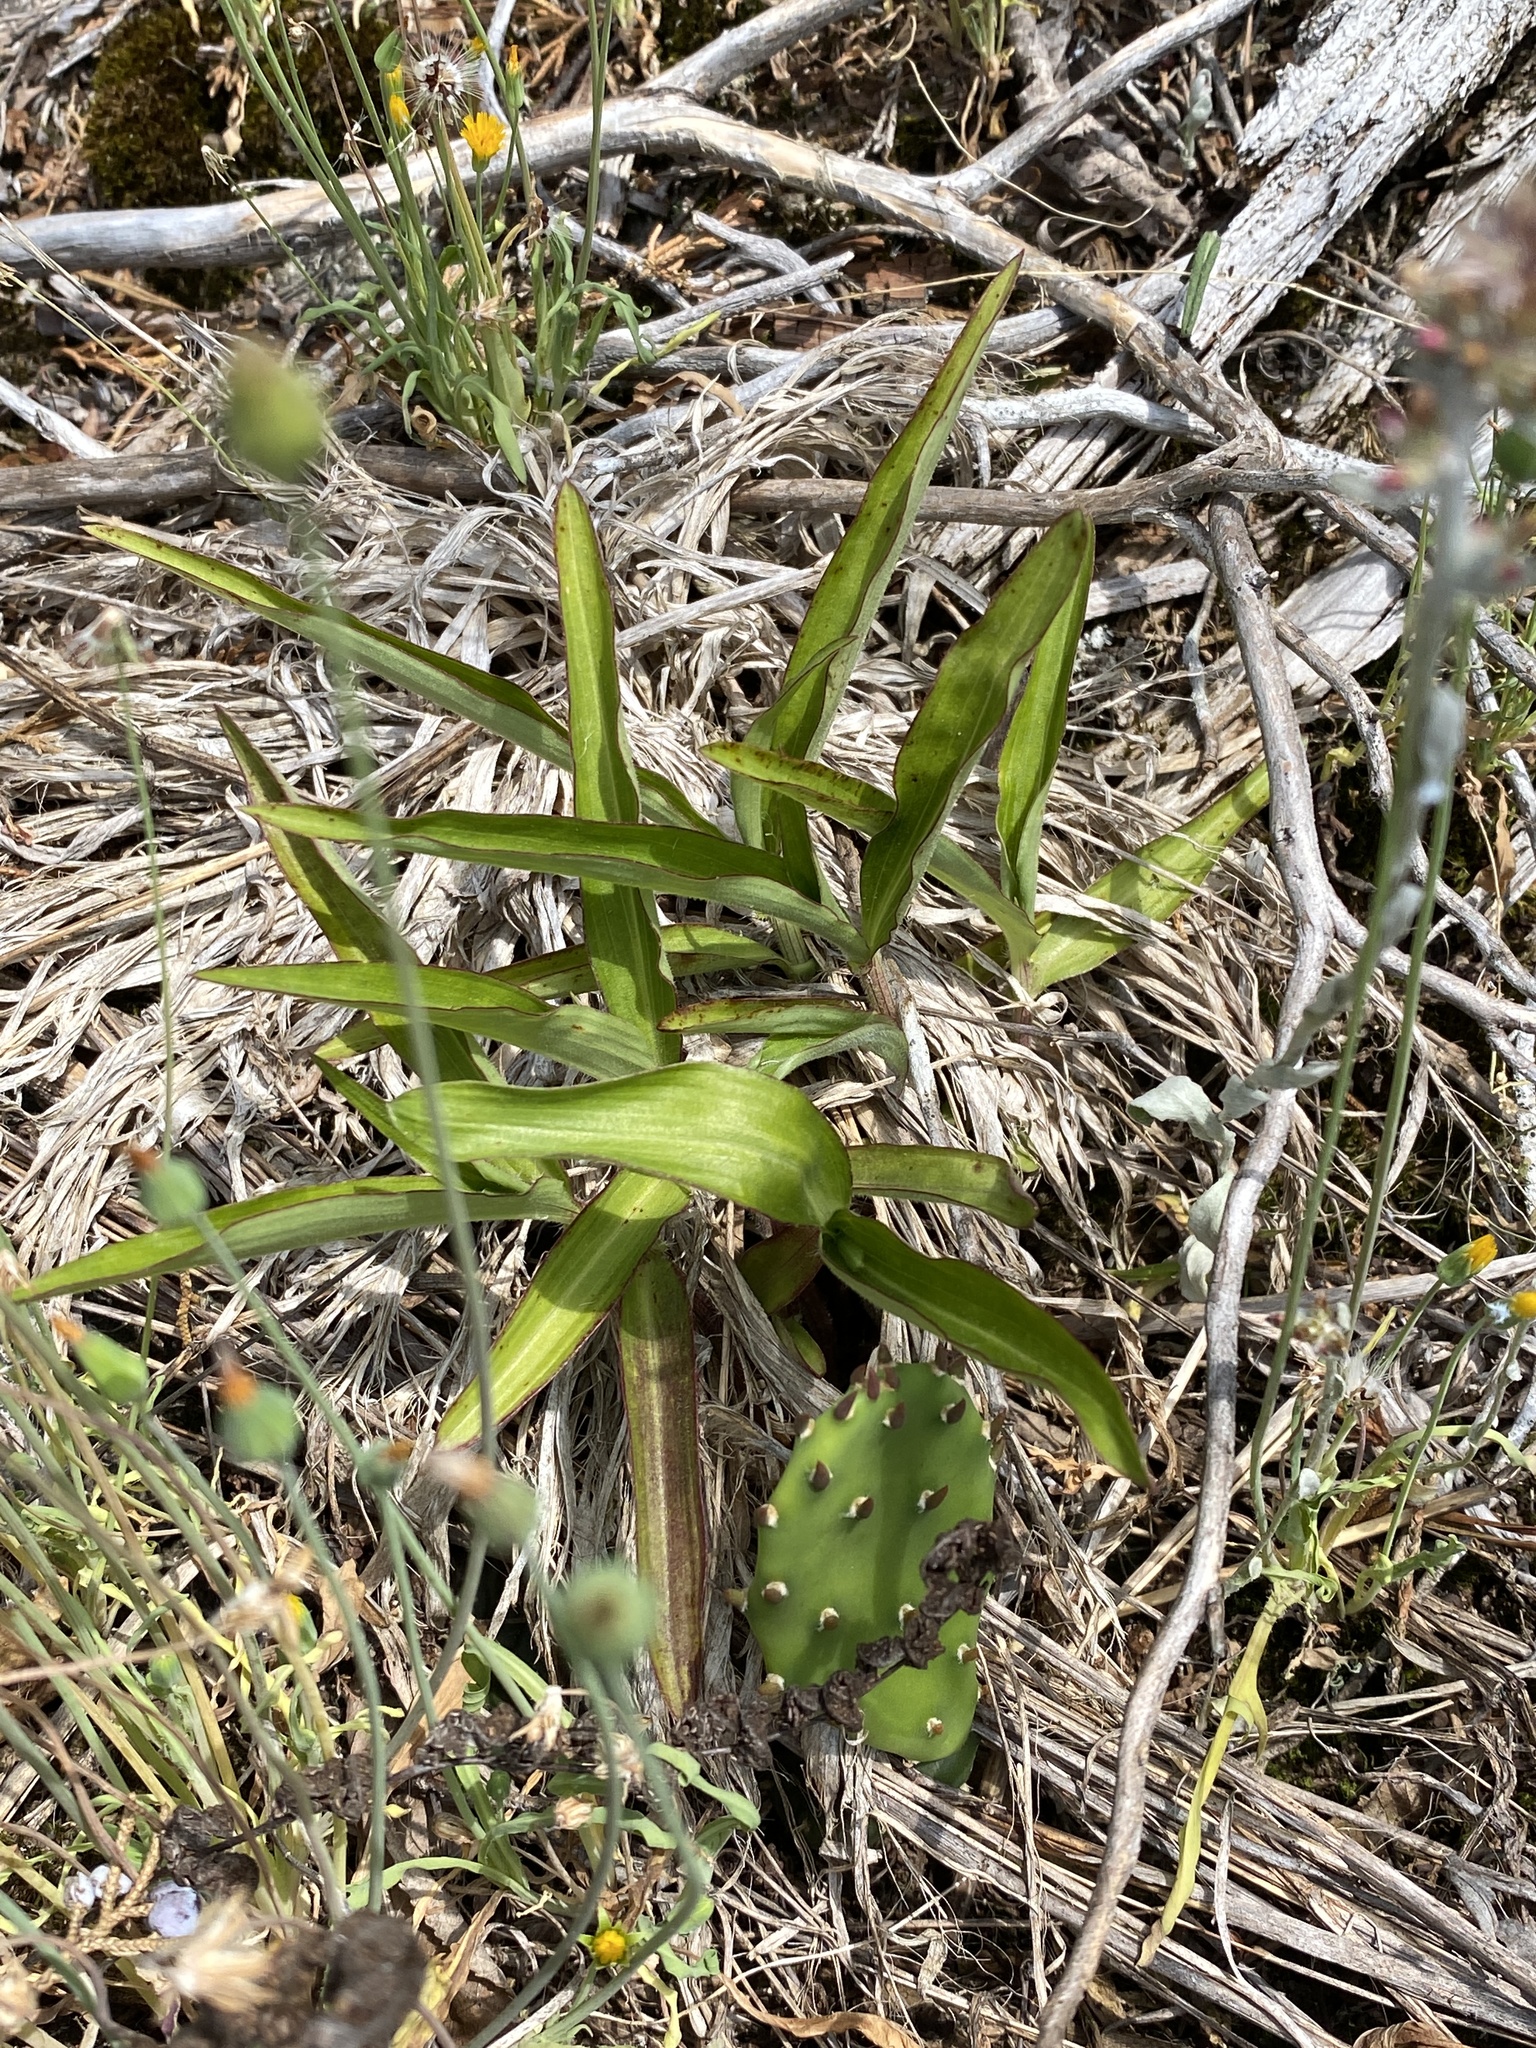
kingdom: Plantae
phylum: Tracheophyta
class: Liliopsida
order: Commelinales
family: Commelinaceae
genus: Commelina
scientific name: Commelina erecta
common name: Blousel blommetjie
